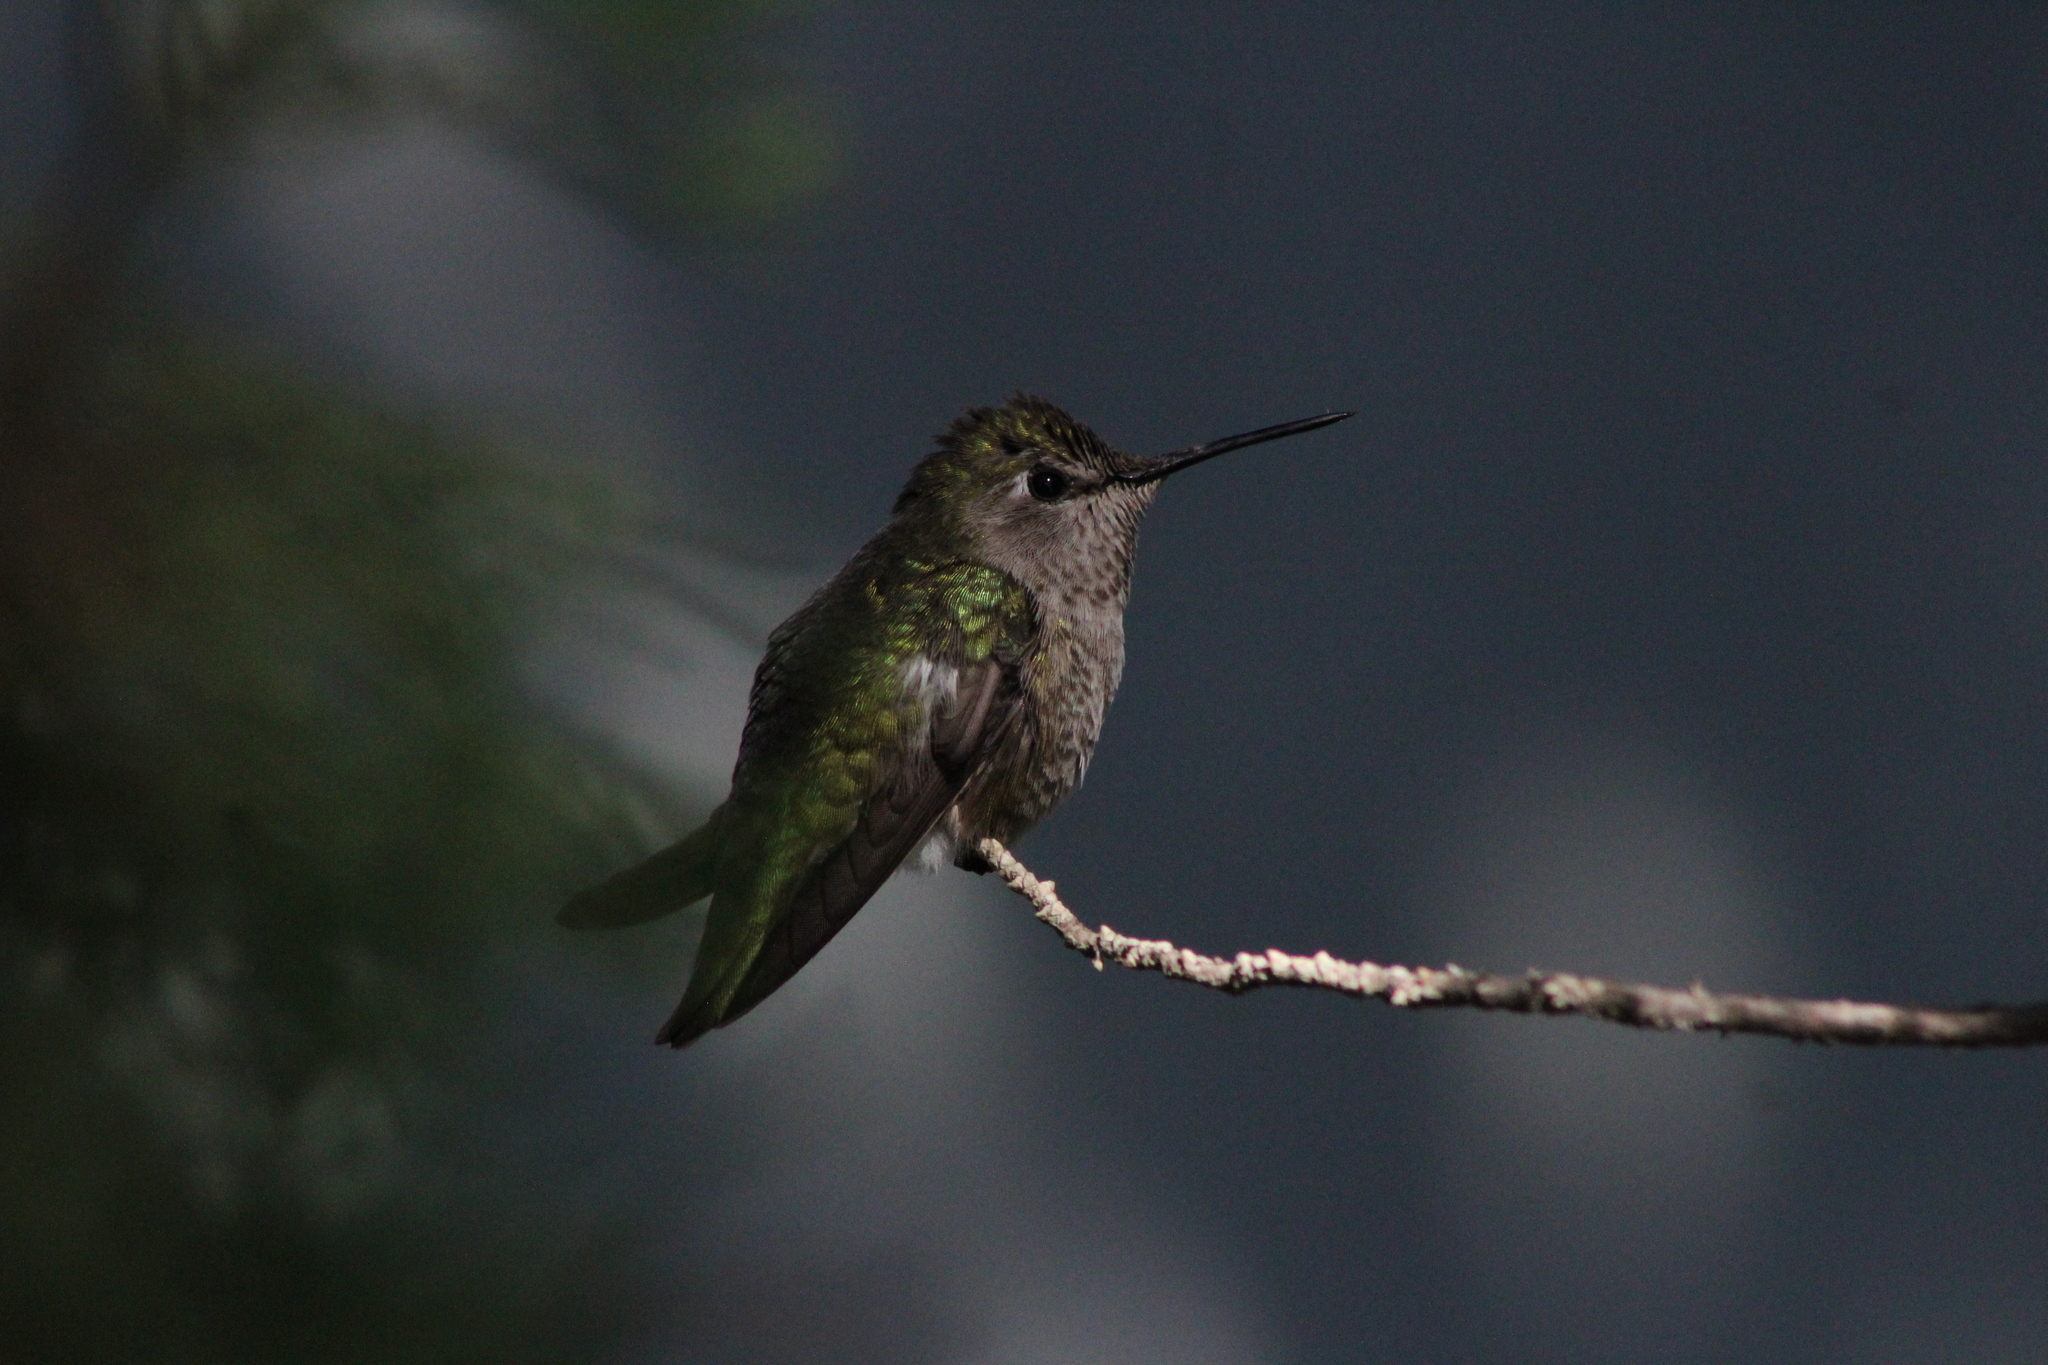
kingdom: Animalia
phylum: Chordata
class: Aves
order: Apodiformes
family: Trochilidae
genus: Calypte
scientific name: Calypte anna
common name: Anna's hummingbird
